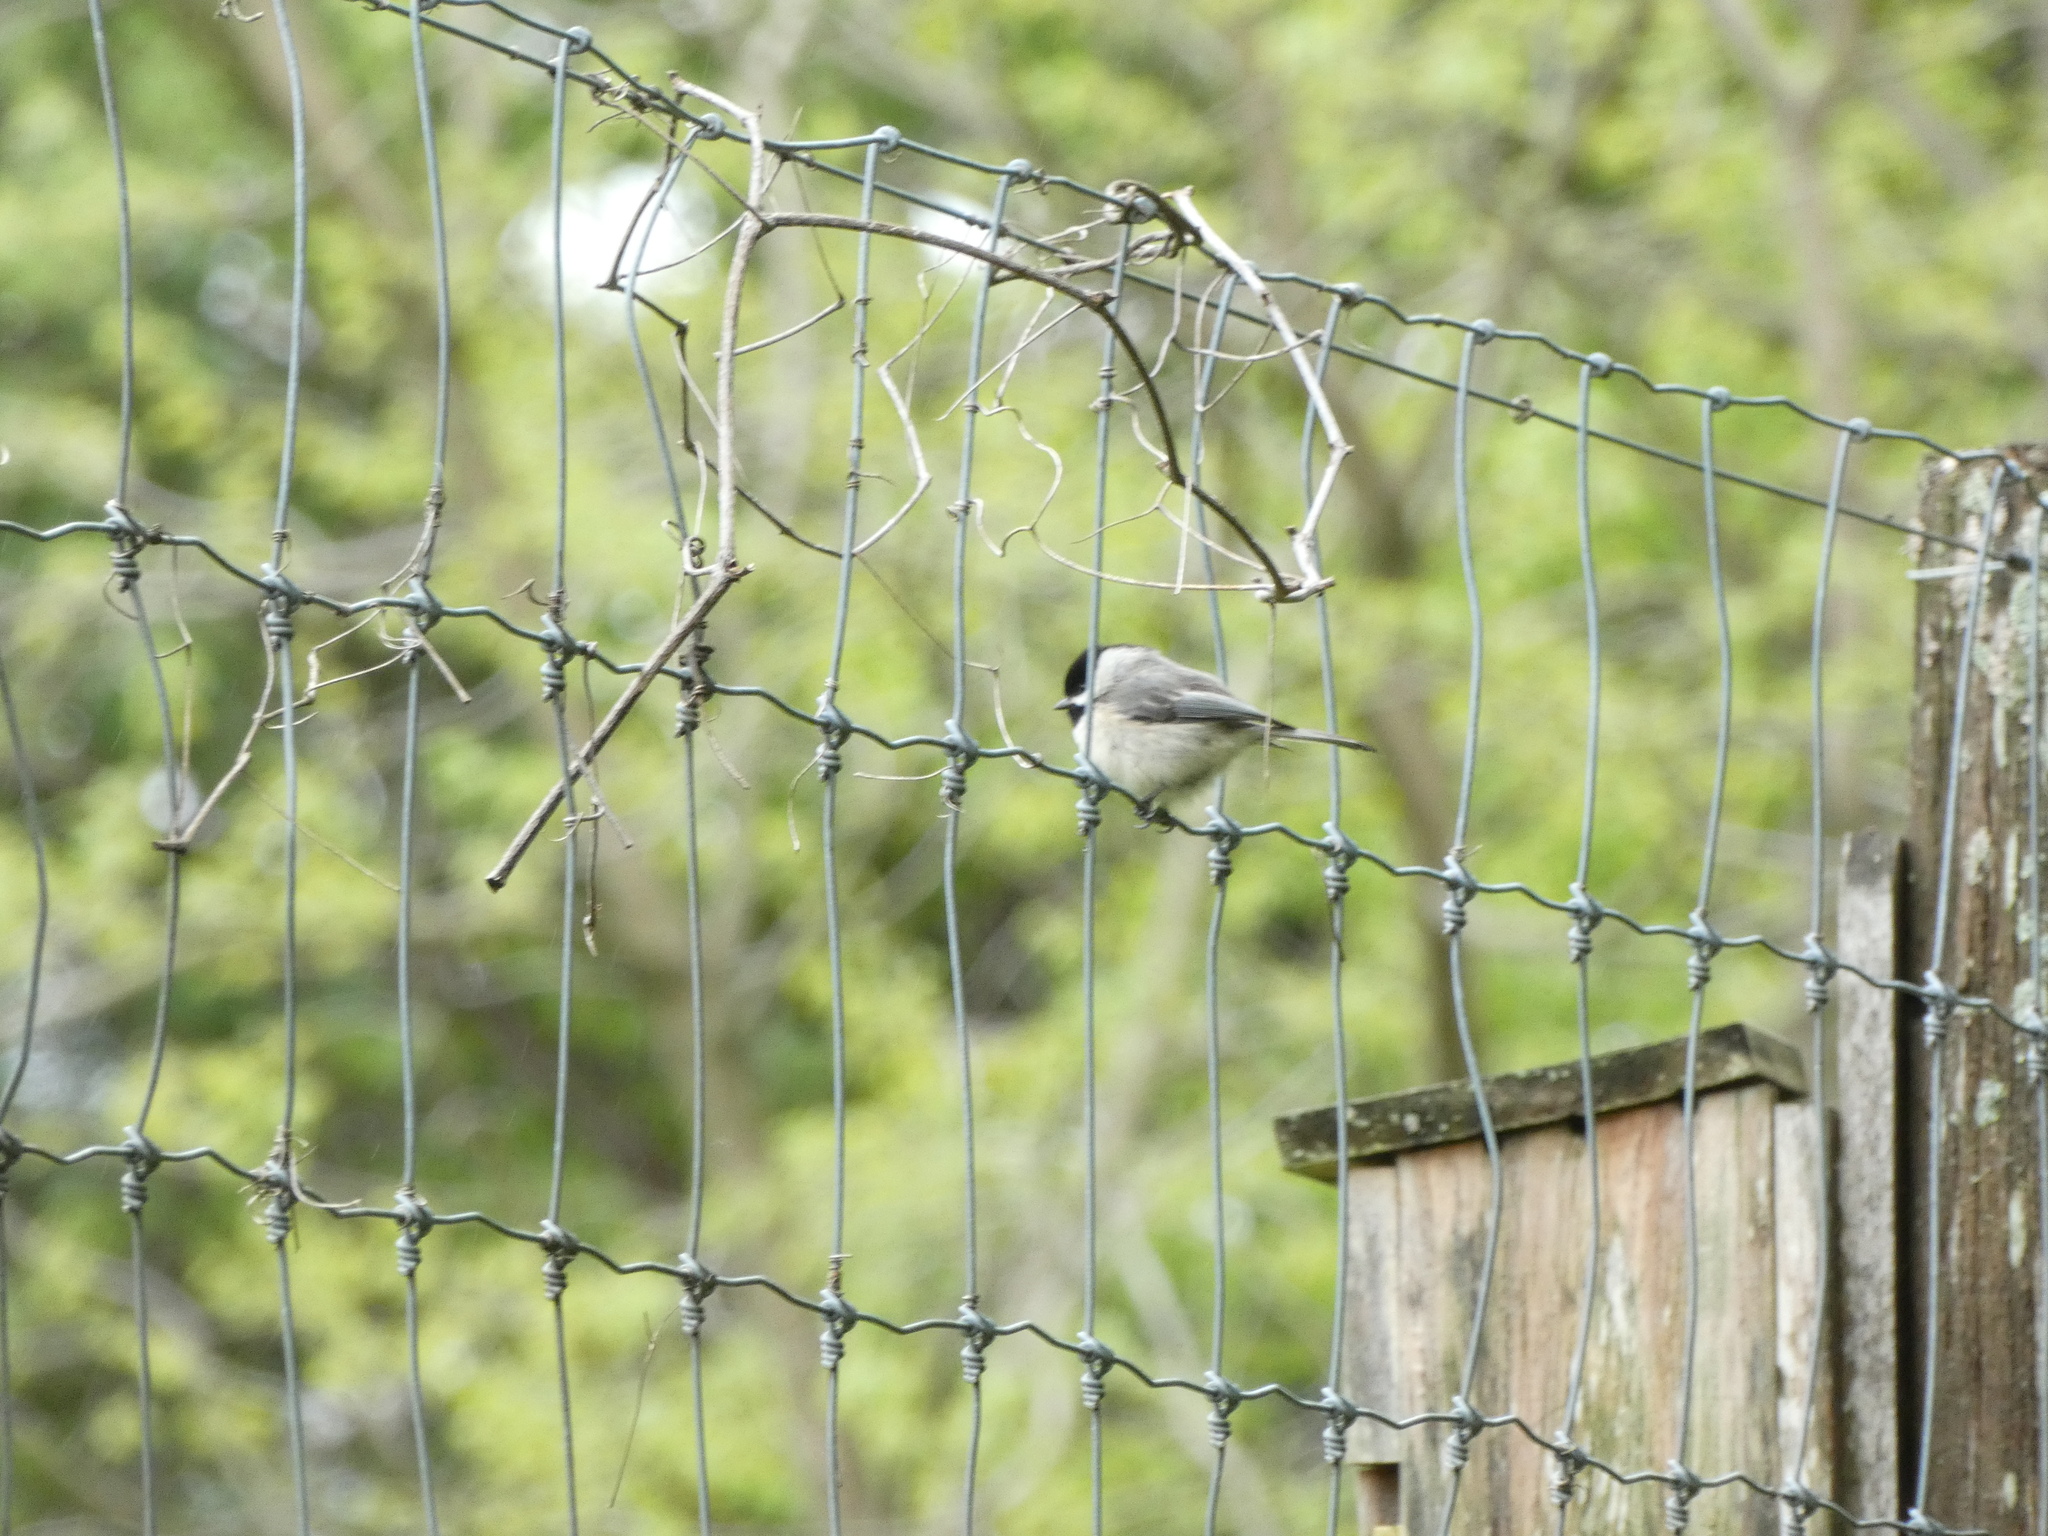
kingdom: Animalia
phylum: Chordata
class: Aves
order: Passeriformes
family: Paridae
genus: Poecile
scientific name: Poecile carolinensis
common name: Carolina chickadee
